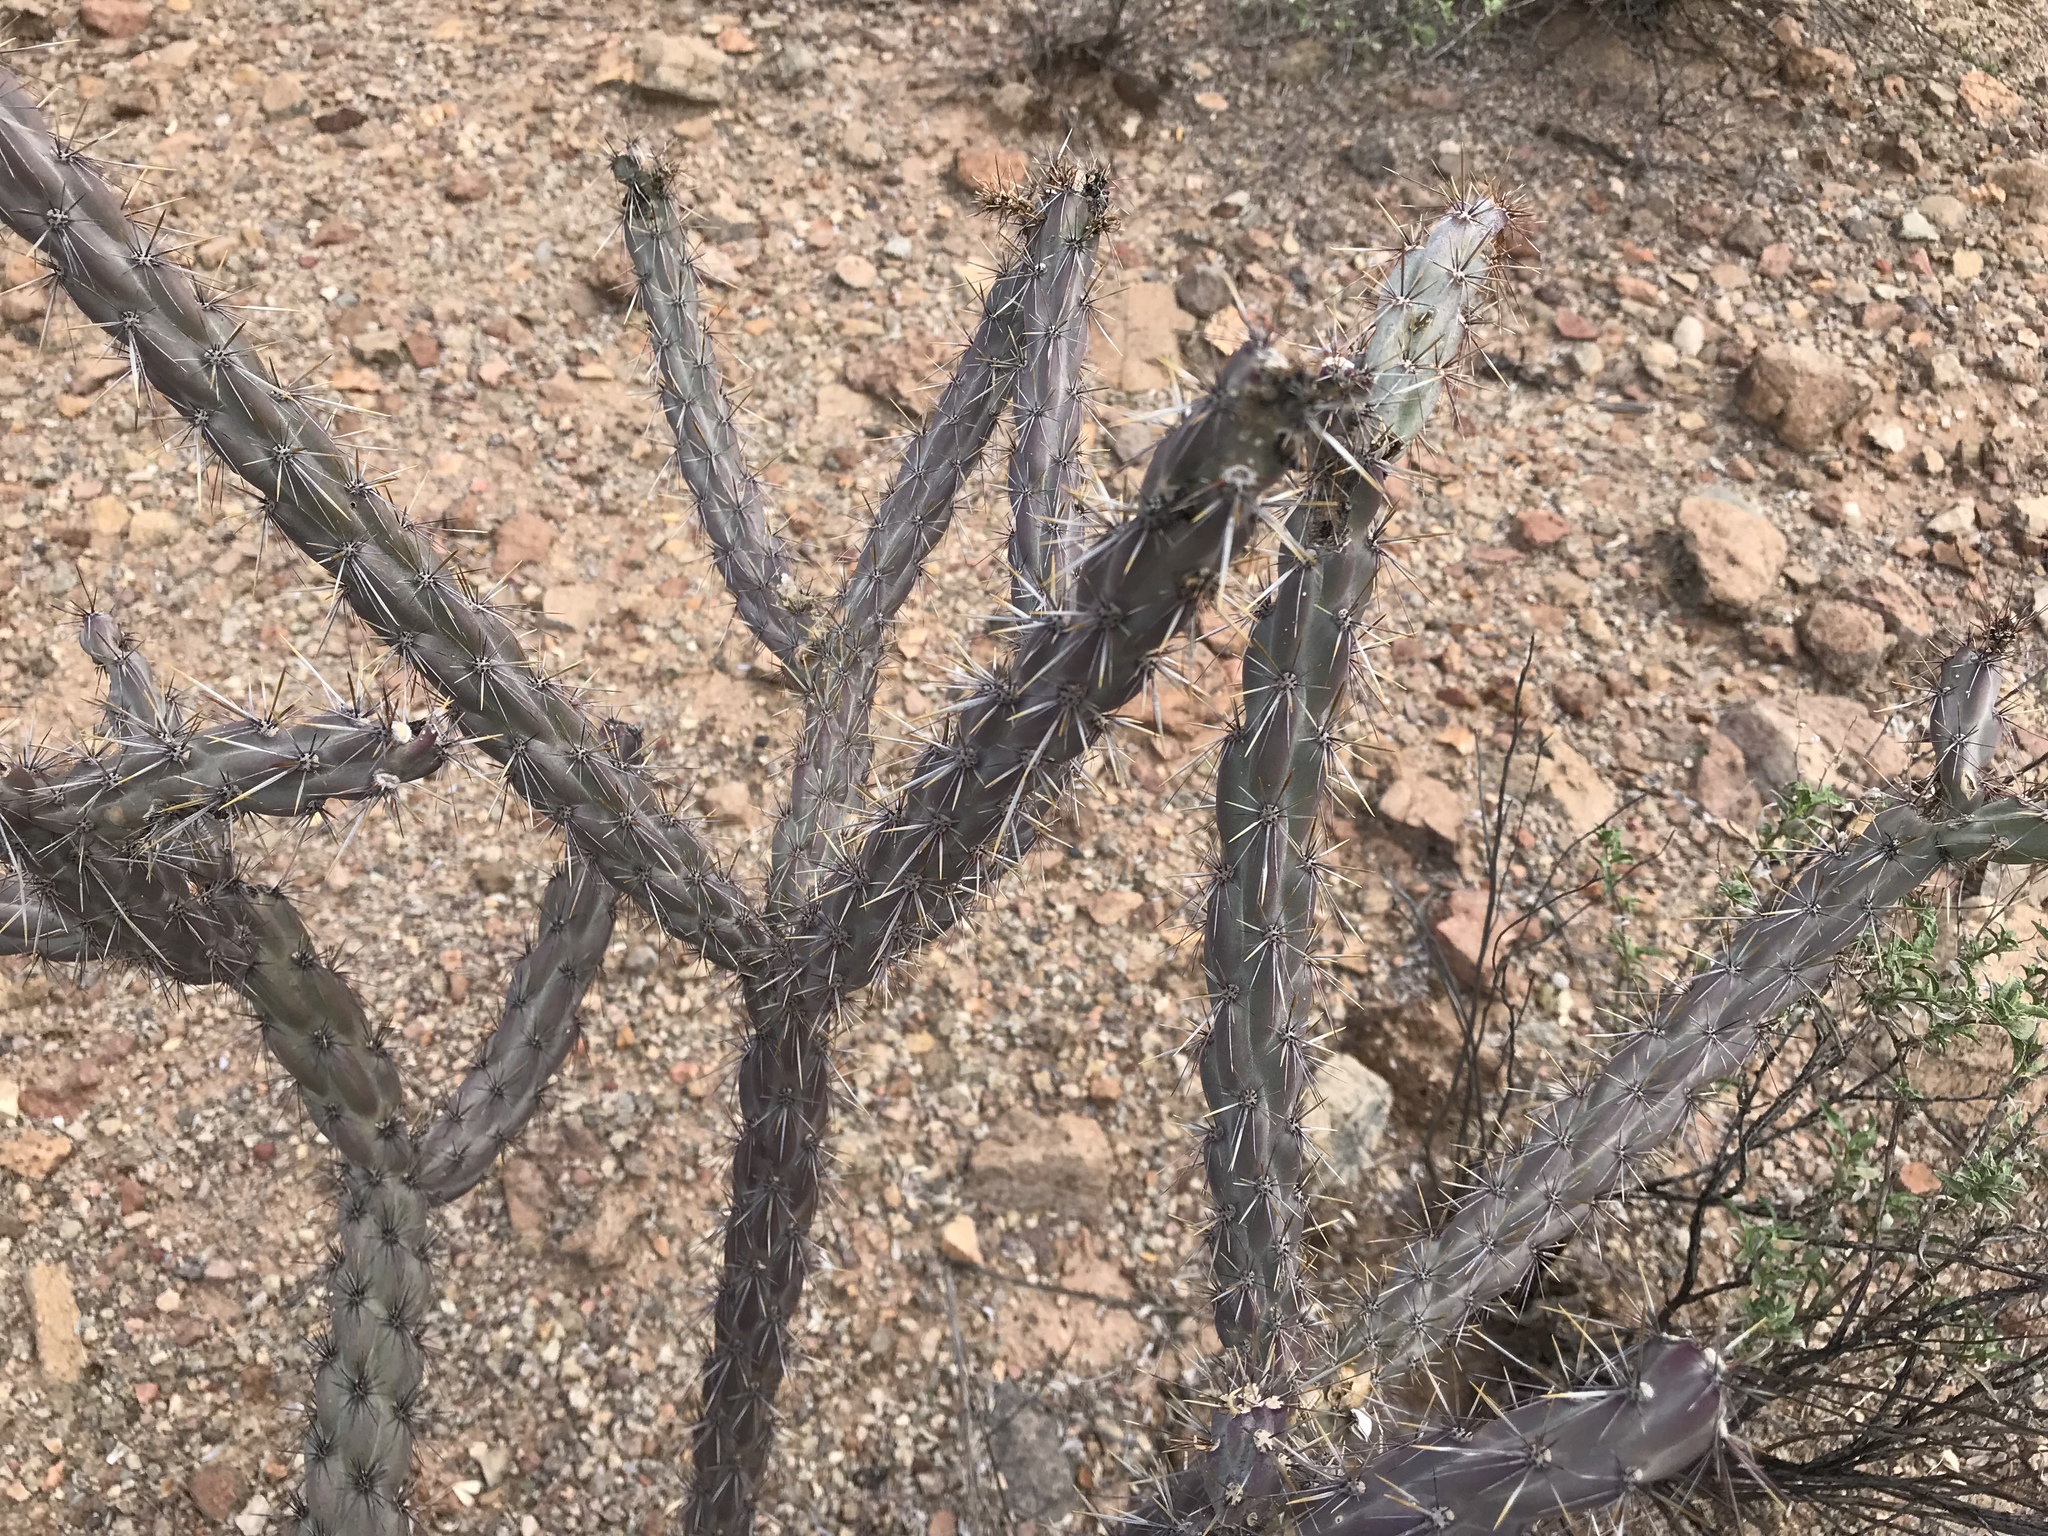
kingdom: Plantae
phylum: Tracheophyta
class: Magnoliopsida
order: Caryophyllales
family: Cactaceae
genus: Cylindropuntia
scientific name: Cylindropuntia thurberi
